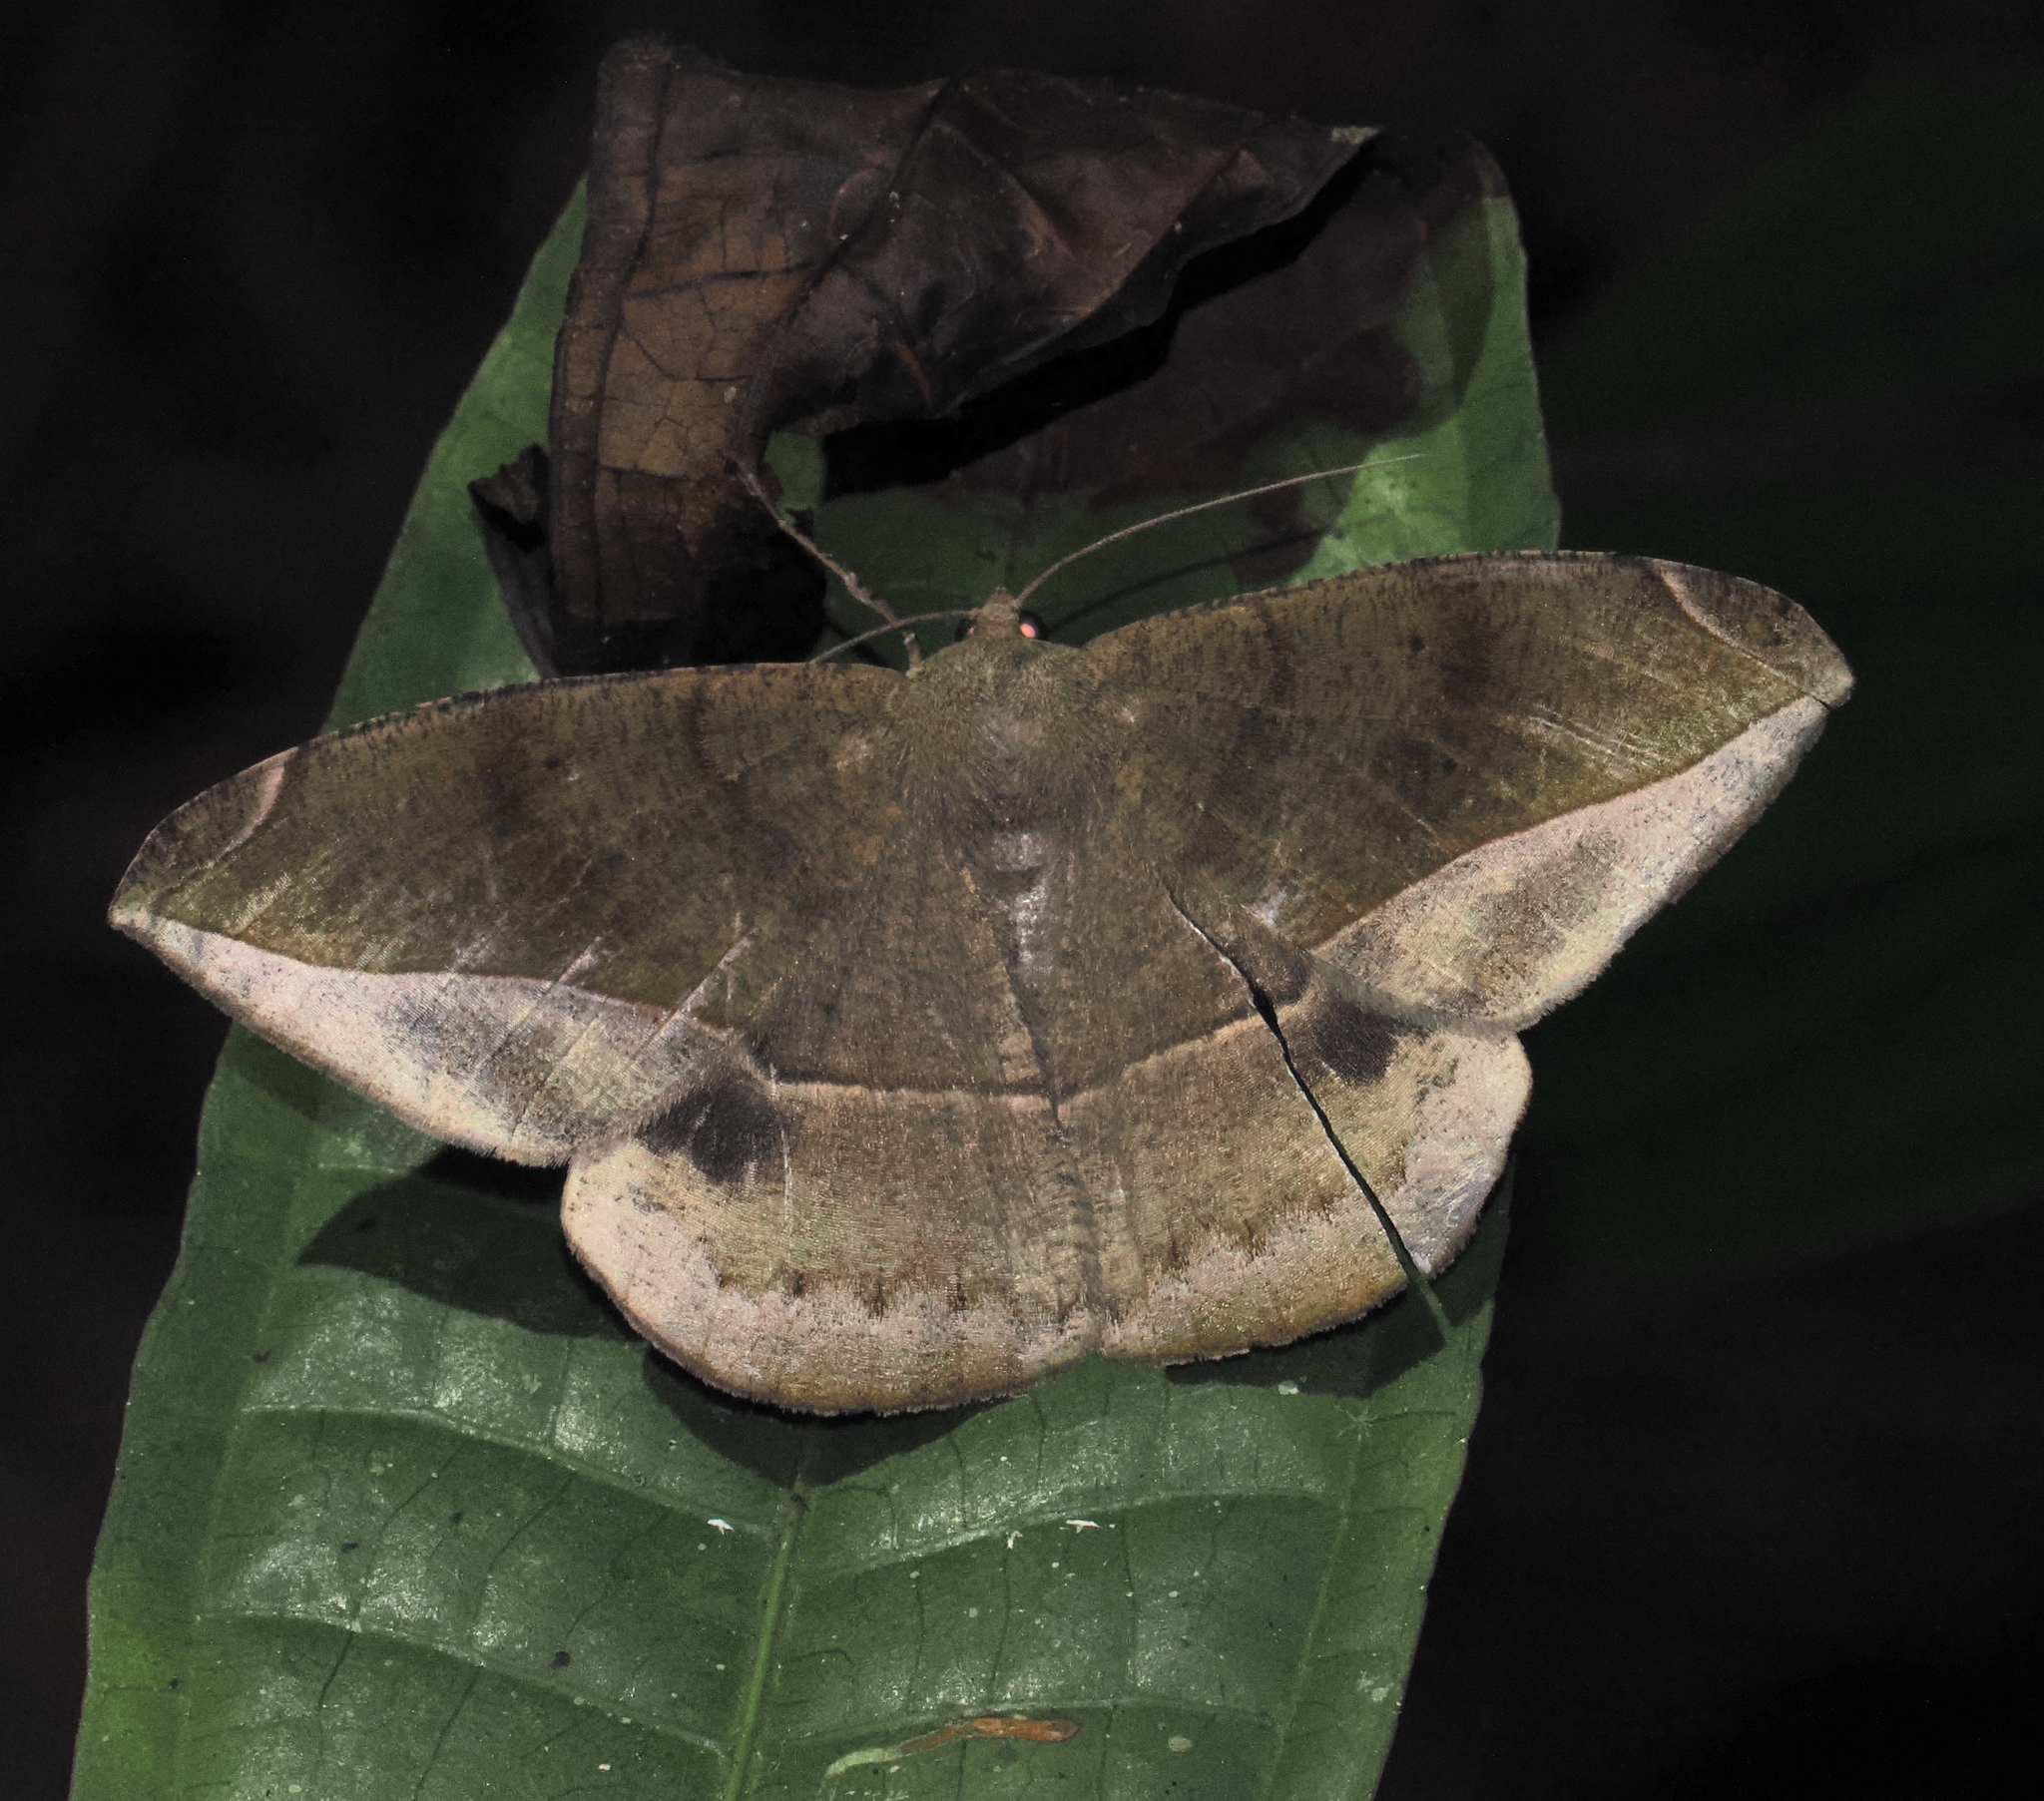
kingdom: Animalia
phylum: Arthropoda
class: Insecta
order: Lepidoptera
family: Geometridae
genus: Oxydia
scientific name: Oxydia vesulia
